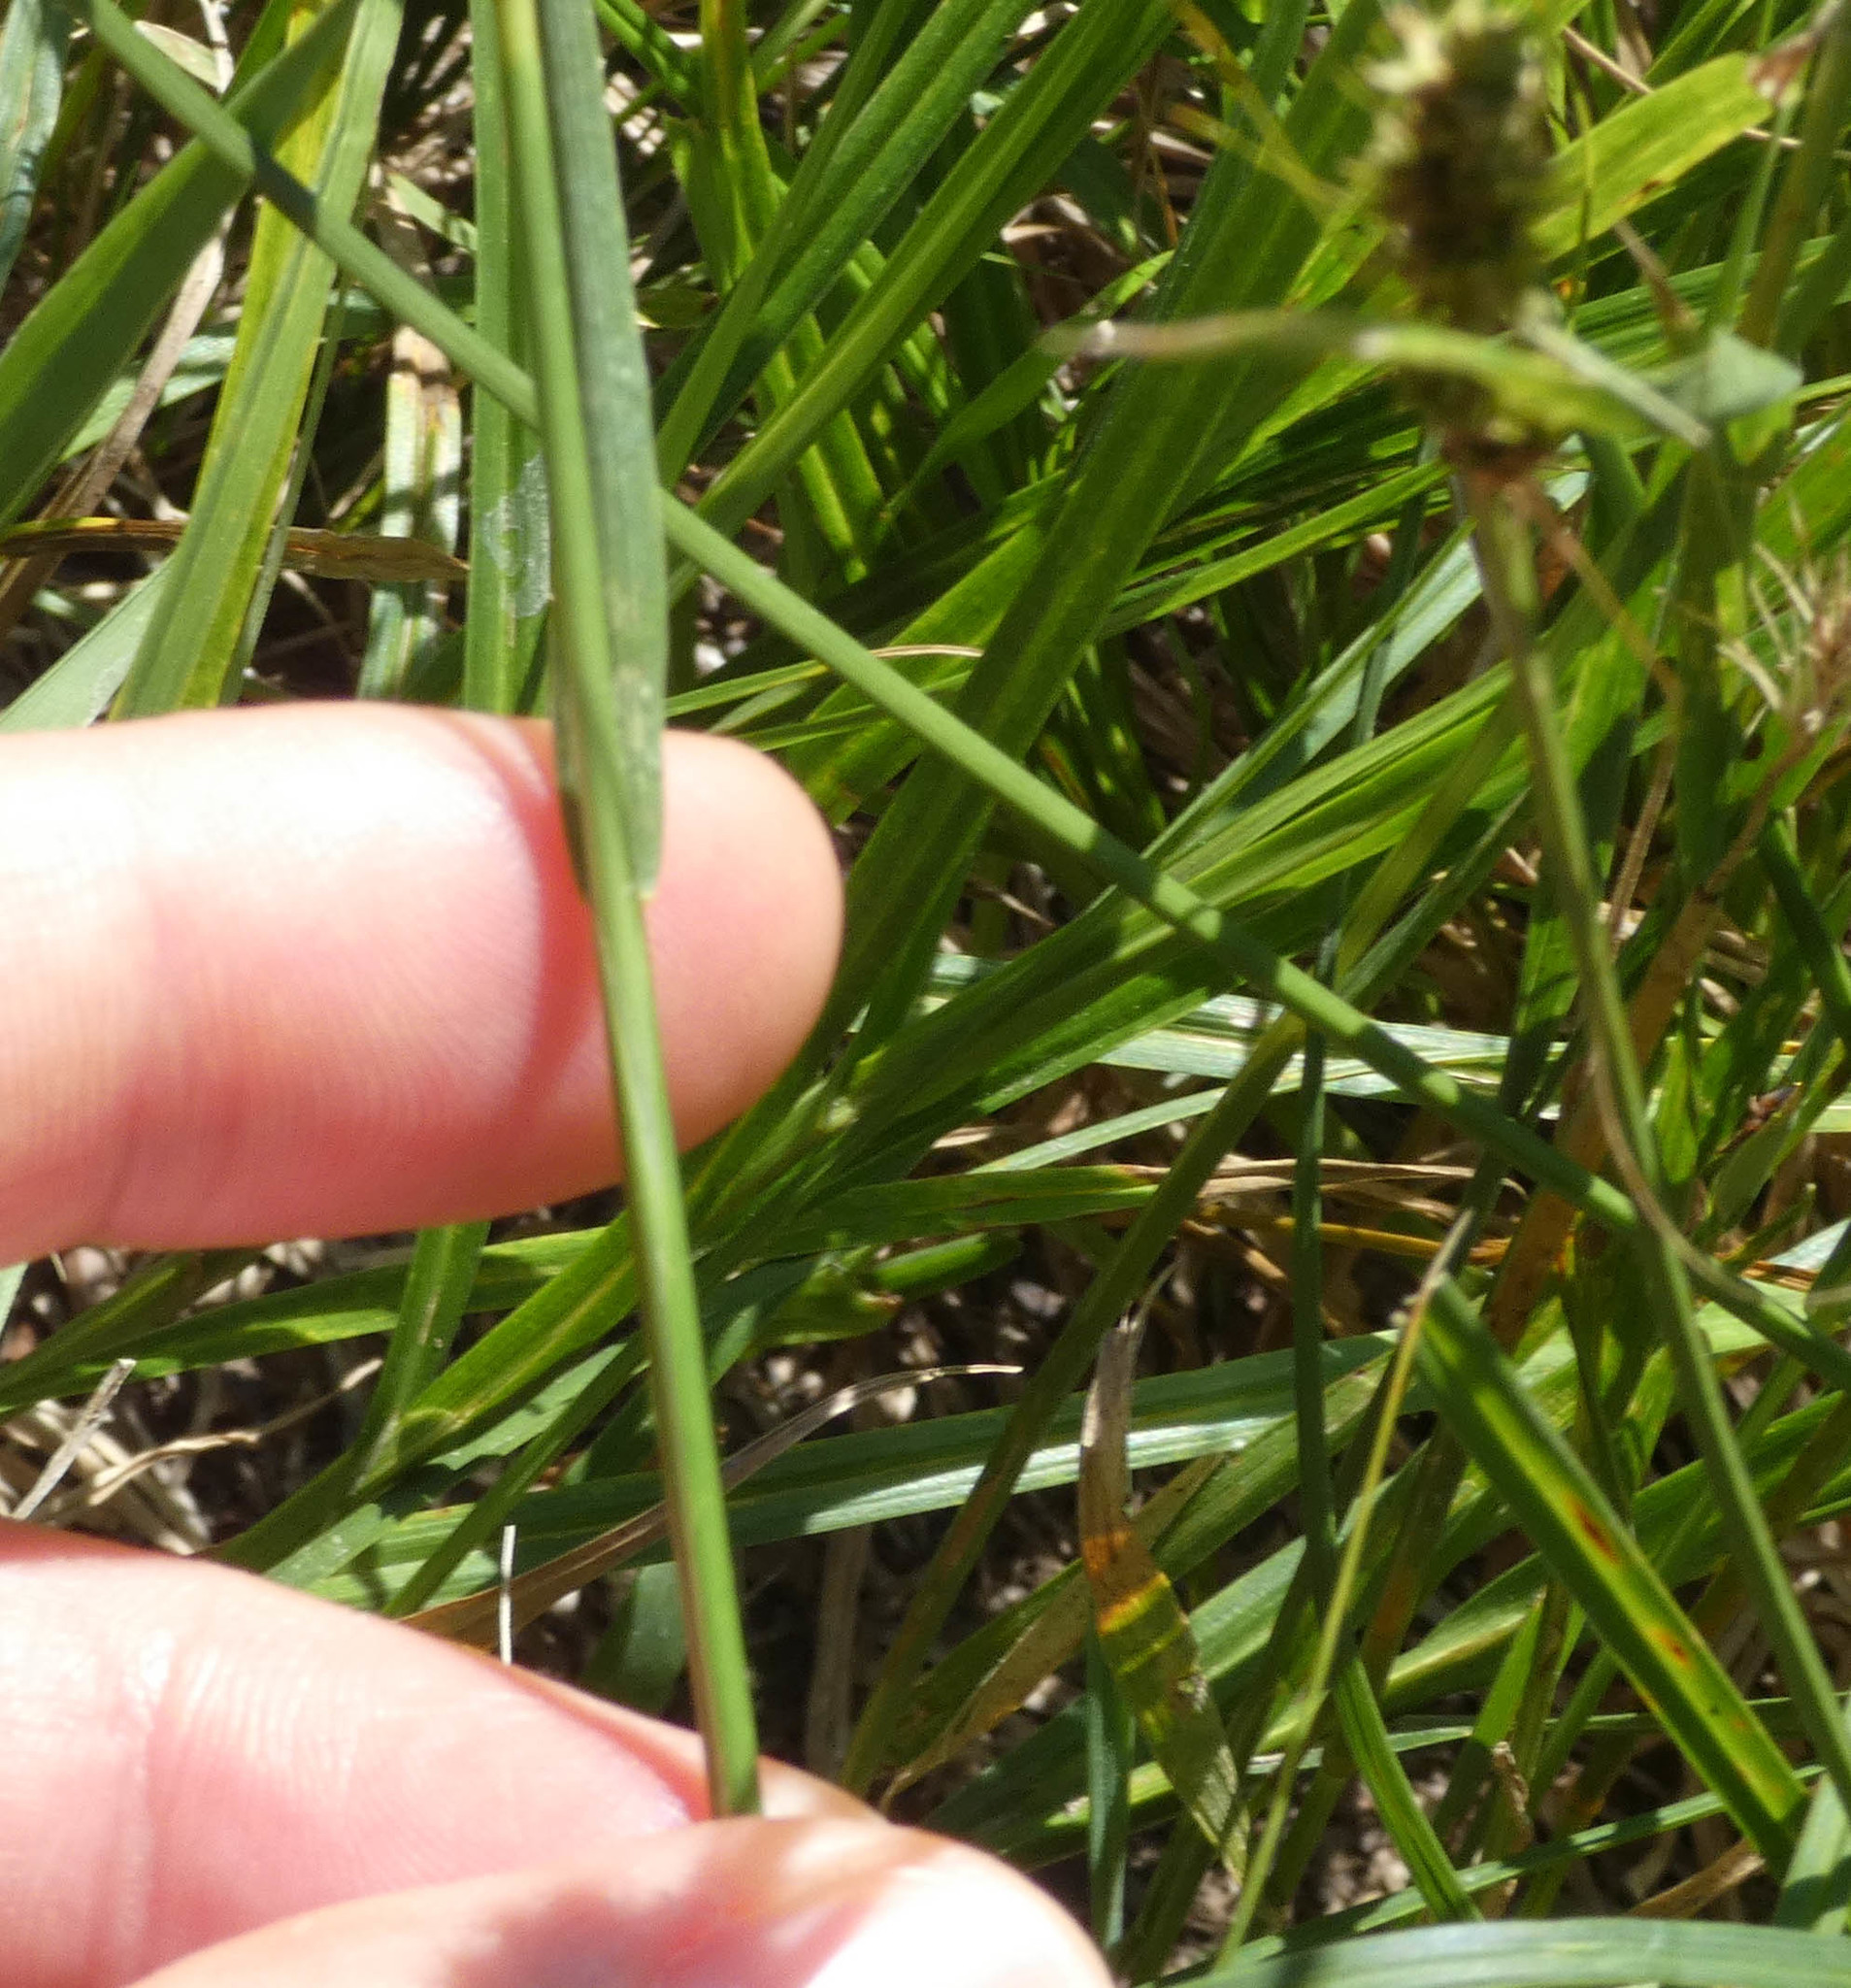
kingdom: Plantae
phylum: Tracheophyta
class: Liliopsida
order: Poales
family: Poaceae
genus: Hordeum
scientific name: Hordeum jubatum
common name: Foxtail barley
